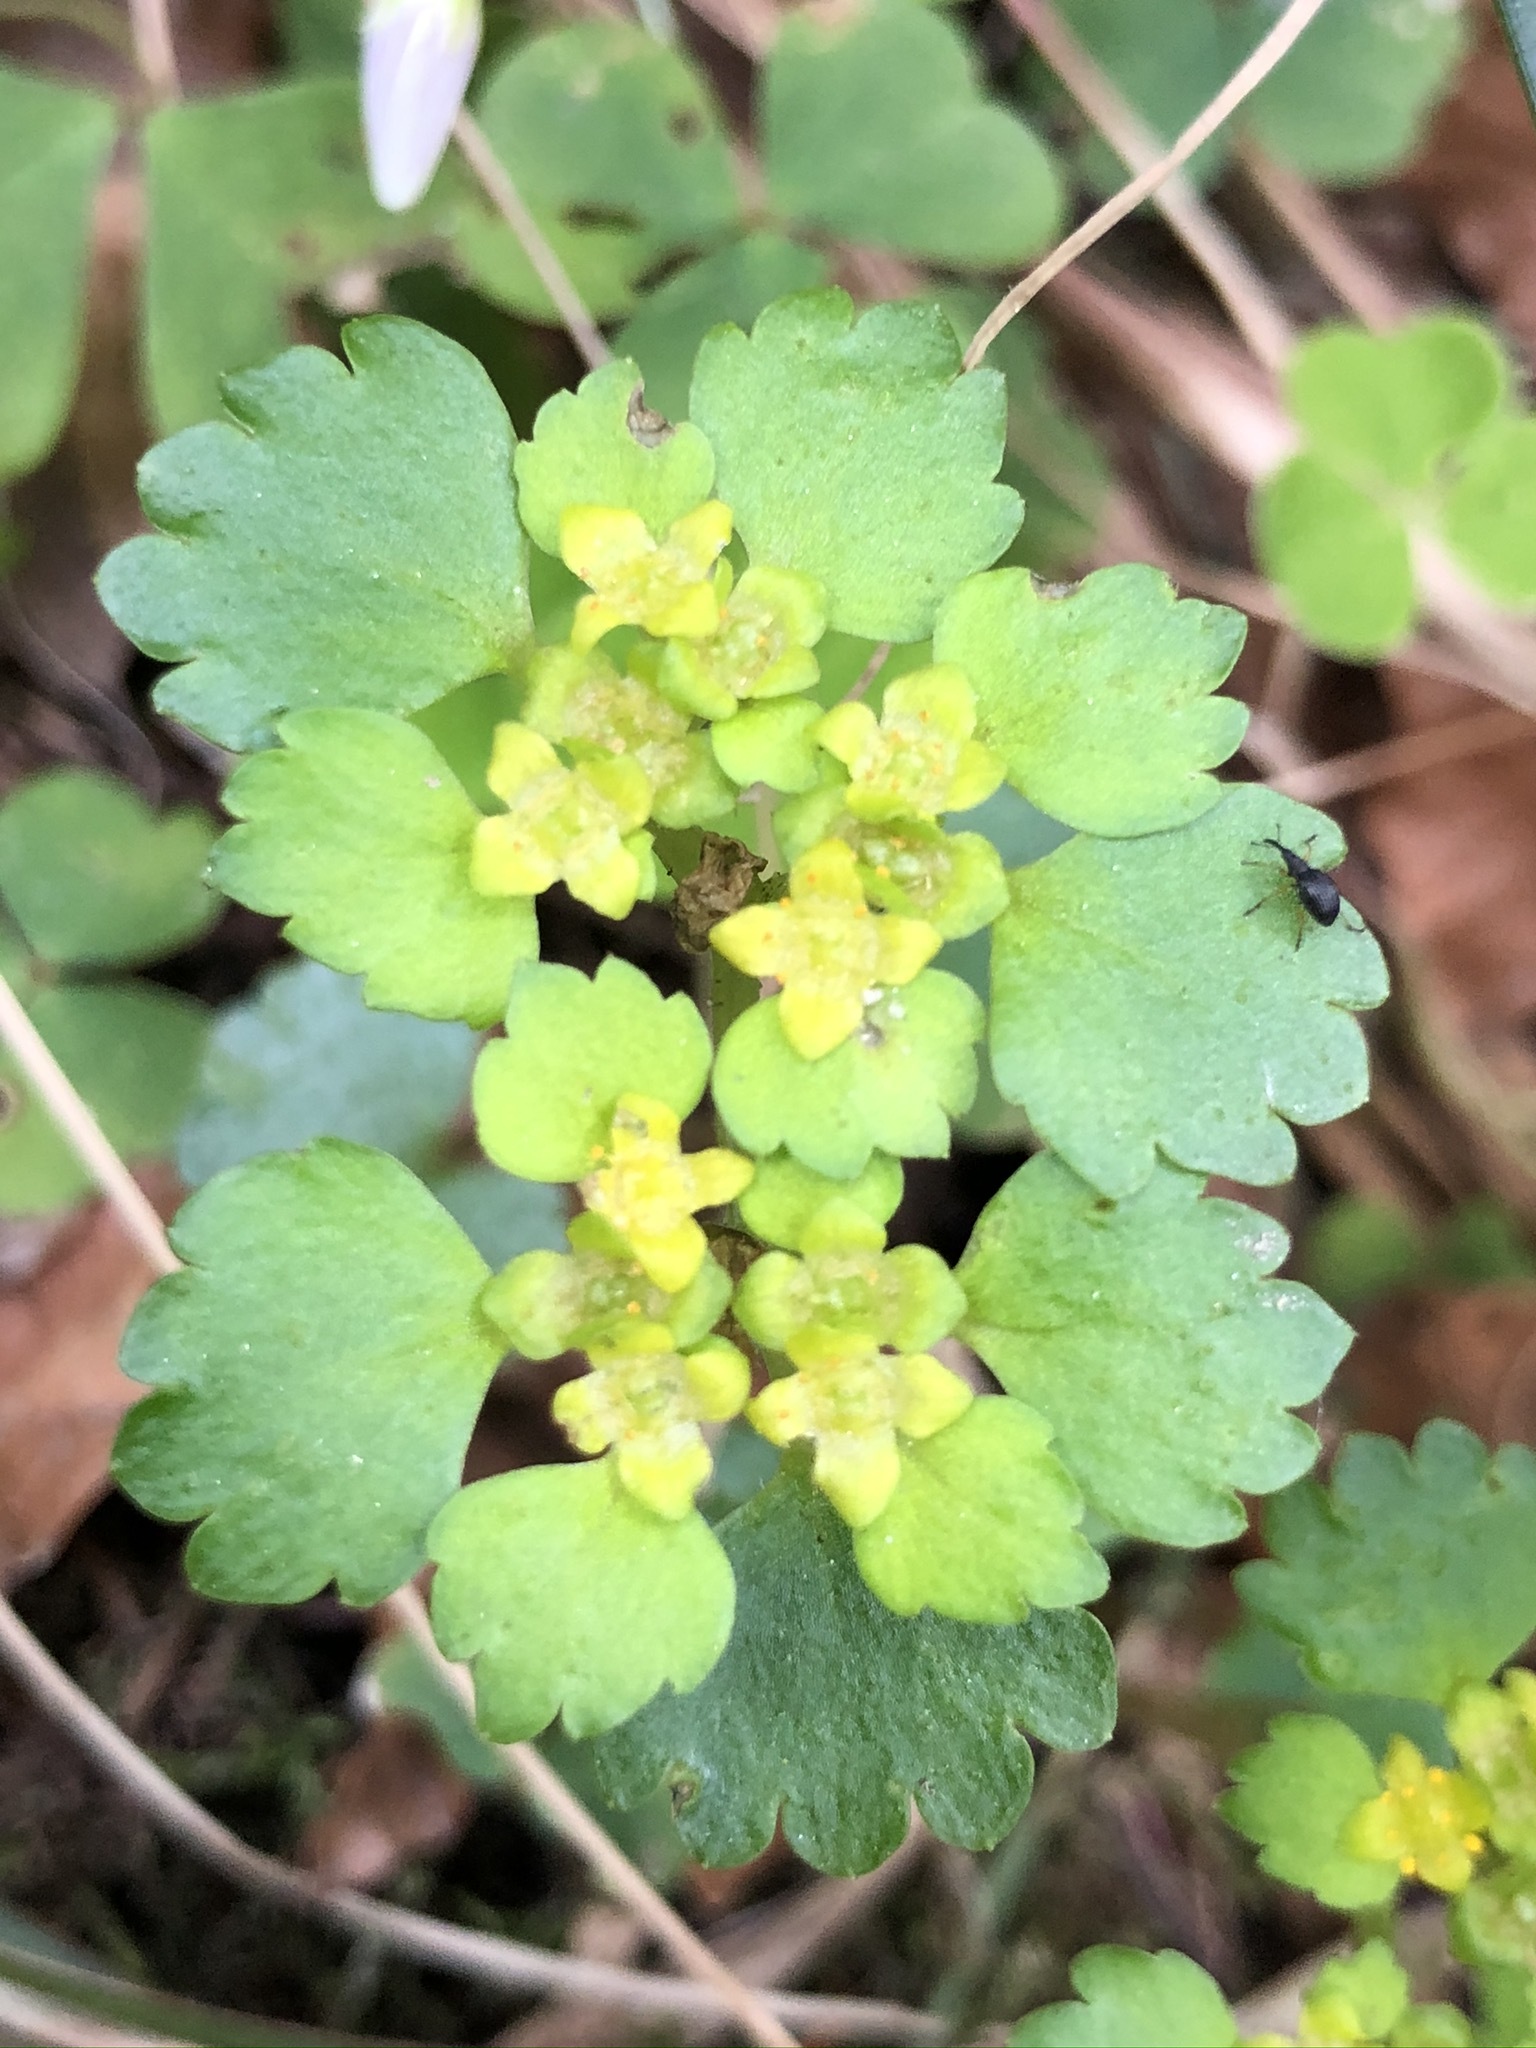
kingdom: Plantae
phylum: Tracheophyta
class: Magnoliopsida
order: Saxifragales
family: Saxifragaceae
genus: Chrysosplenium
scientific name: Chrysosplenium alternifolium
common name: Alternate-leaved golden-saxifrage
